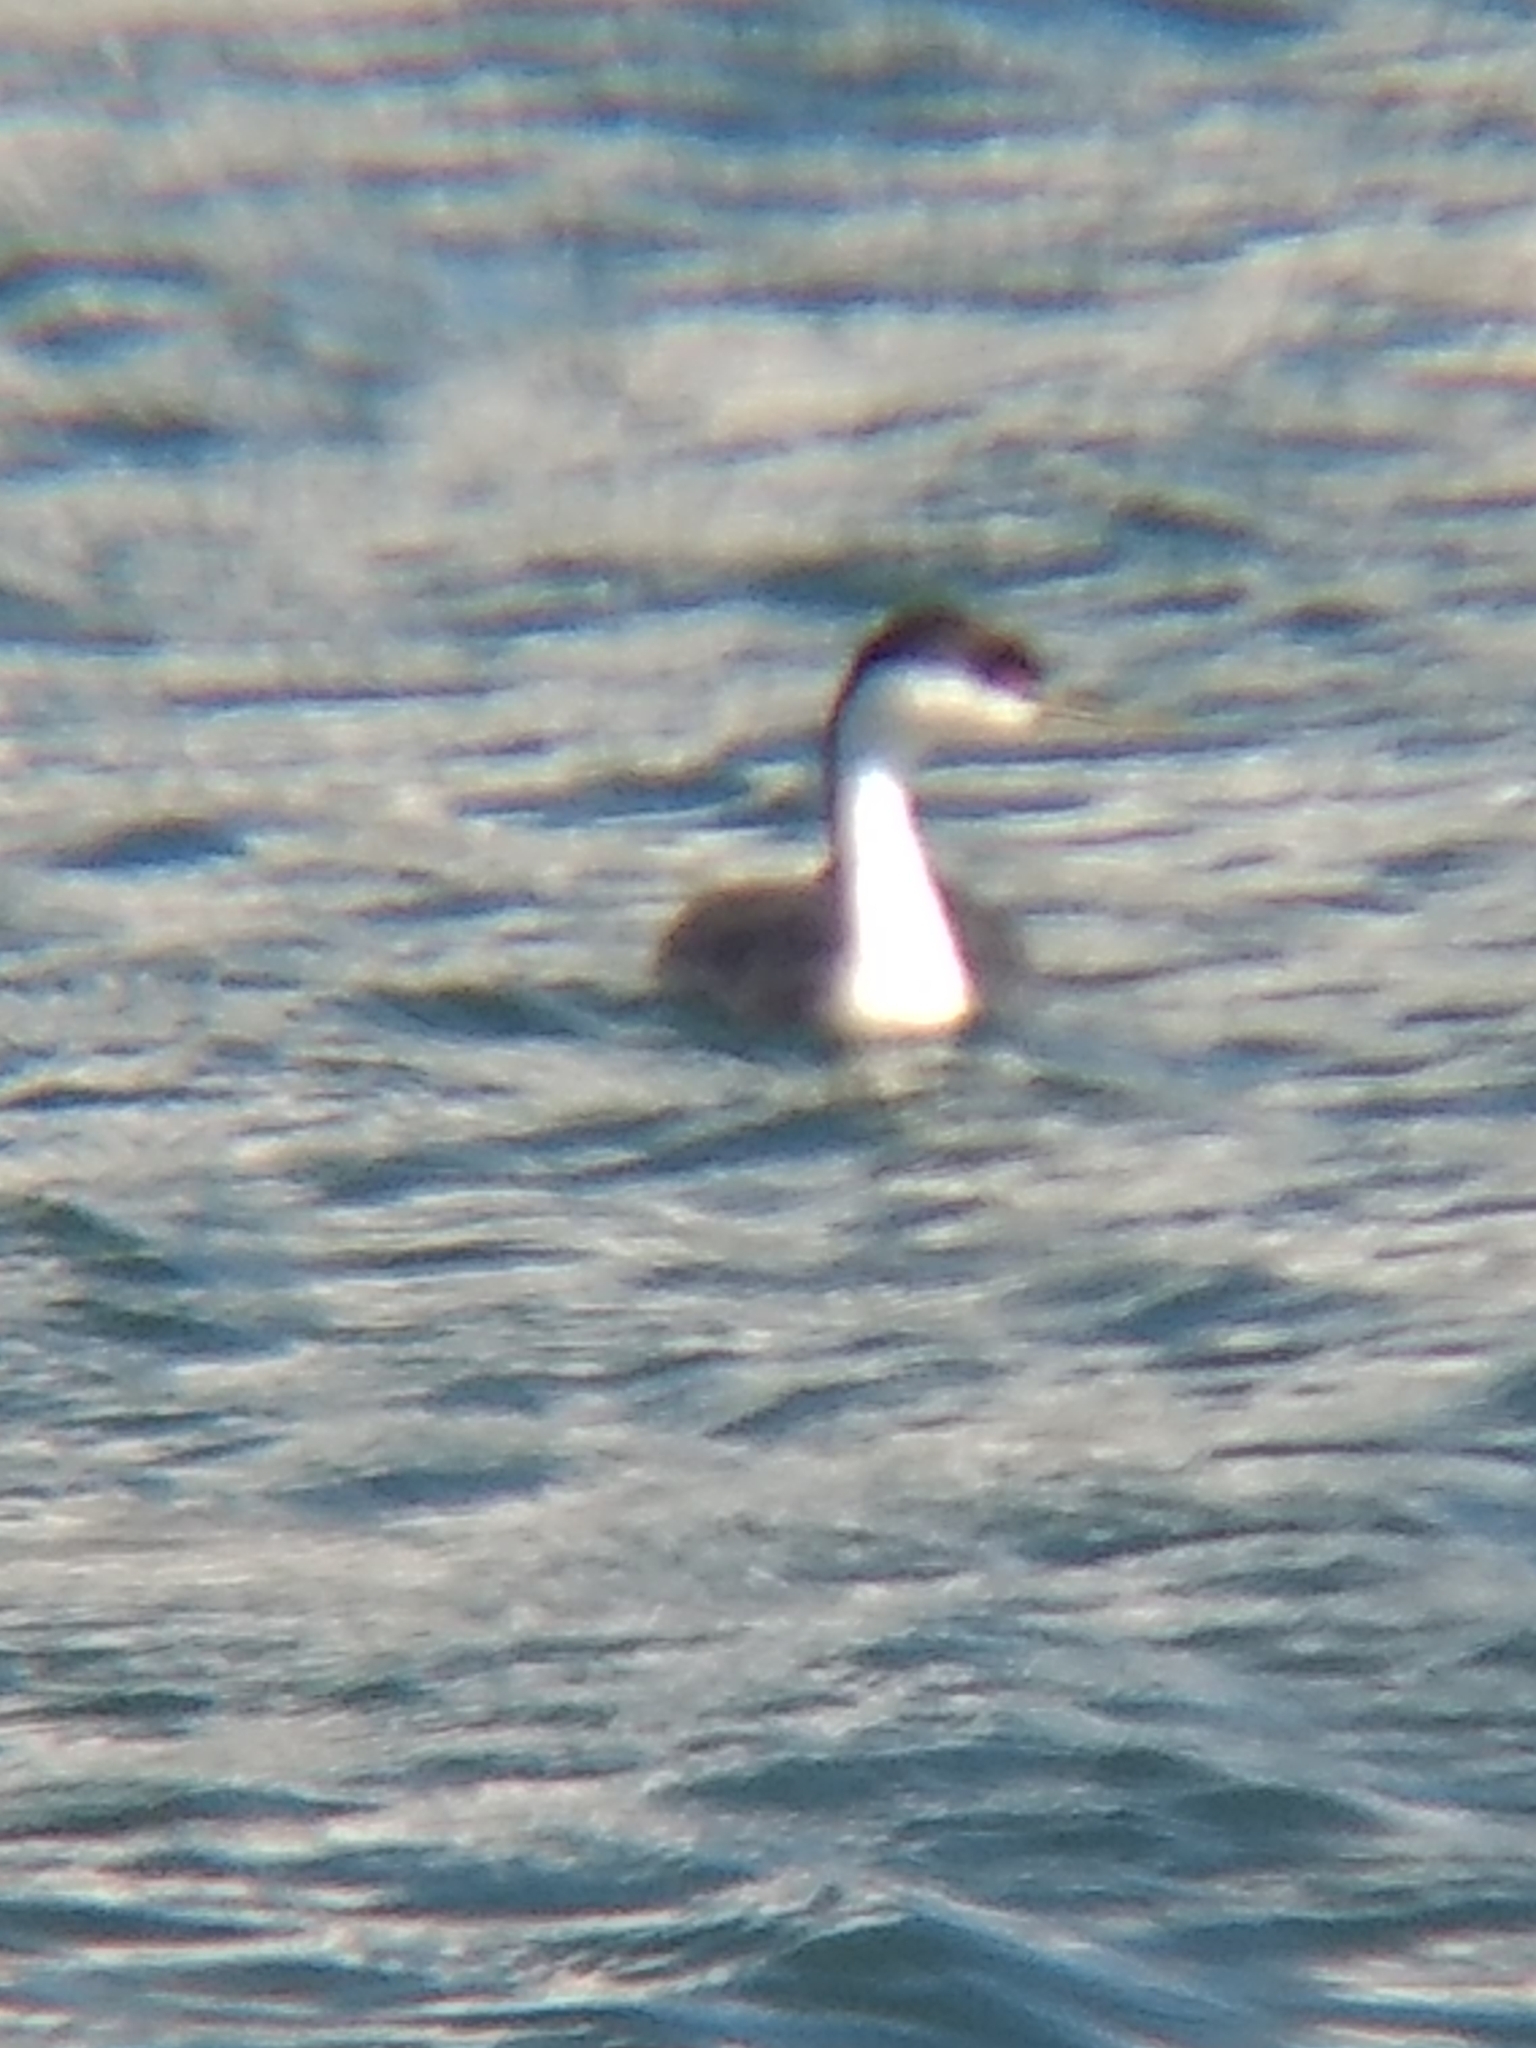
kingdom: Animalia
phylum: Chordata
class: Aves
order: Podicipediformes
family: Podicipedidae
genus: Aechmophorus
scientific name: Aechmophorus occidentalis
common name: Western grebe
